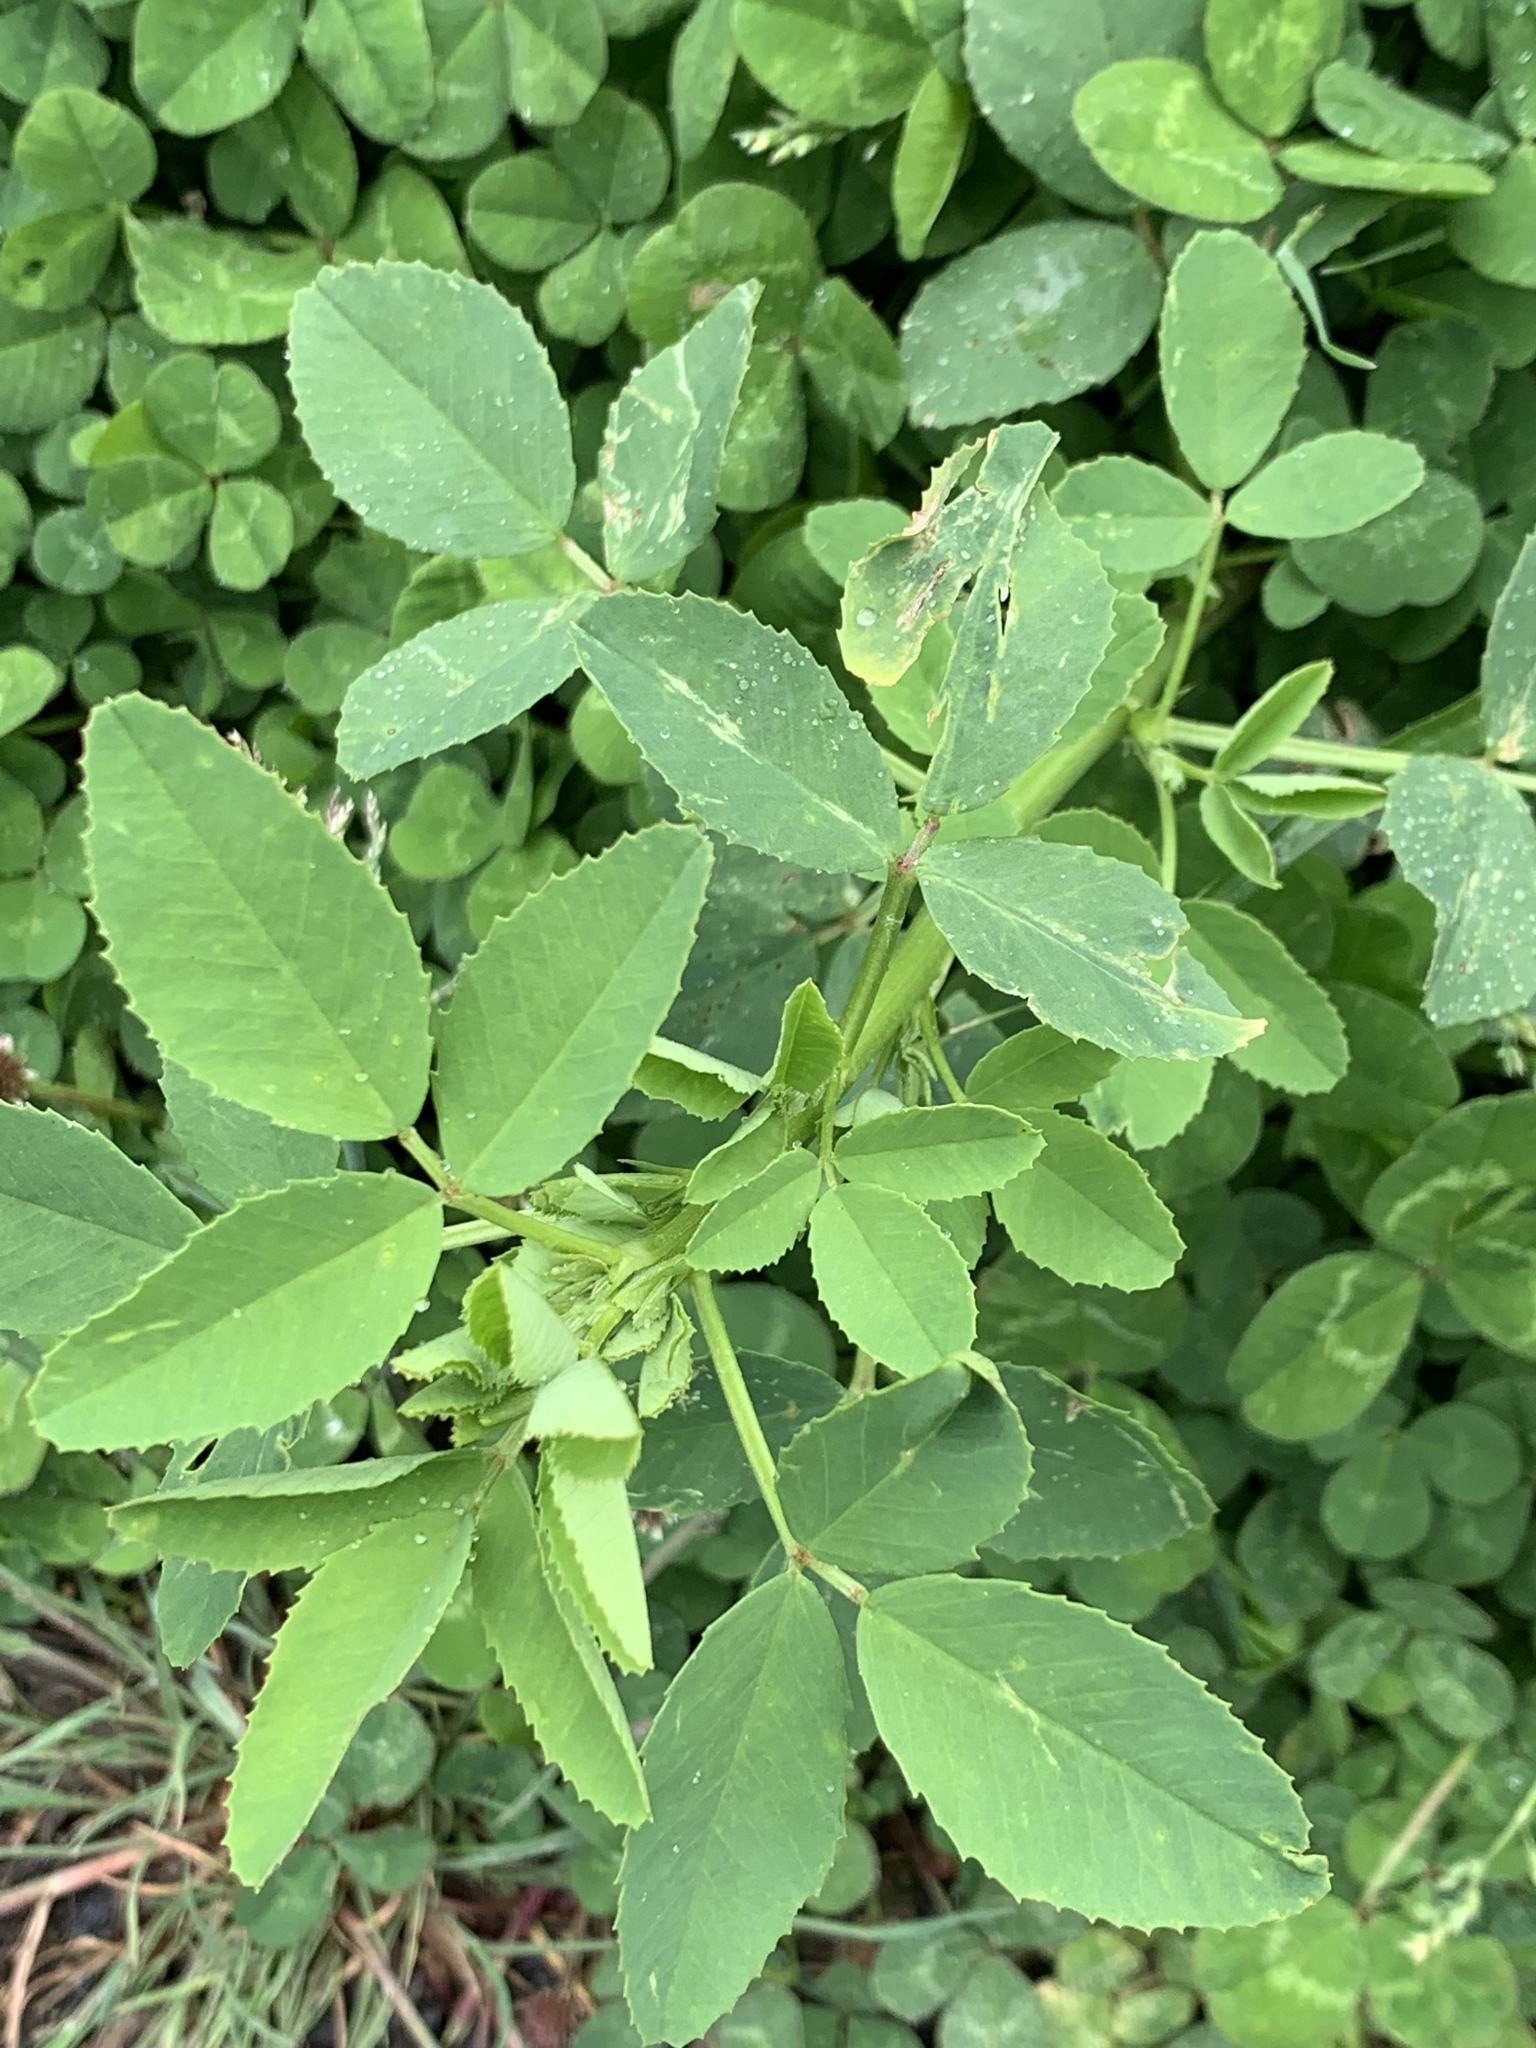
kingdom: Plantae
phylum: Tracheophyta
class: Magnoliopsida
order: Fabales
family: Fabaceae
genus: Melilotus
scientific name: Melilotus
